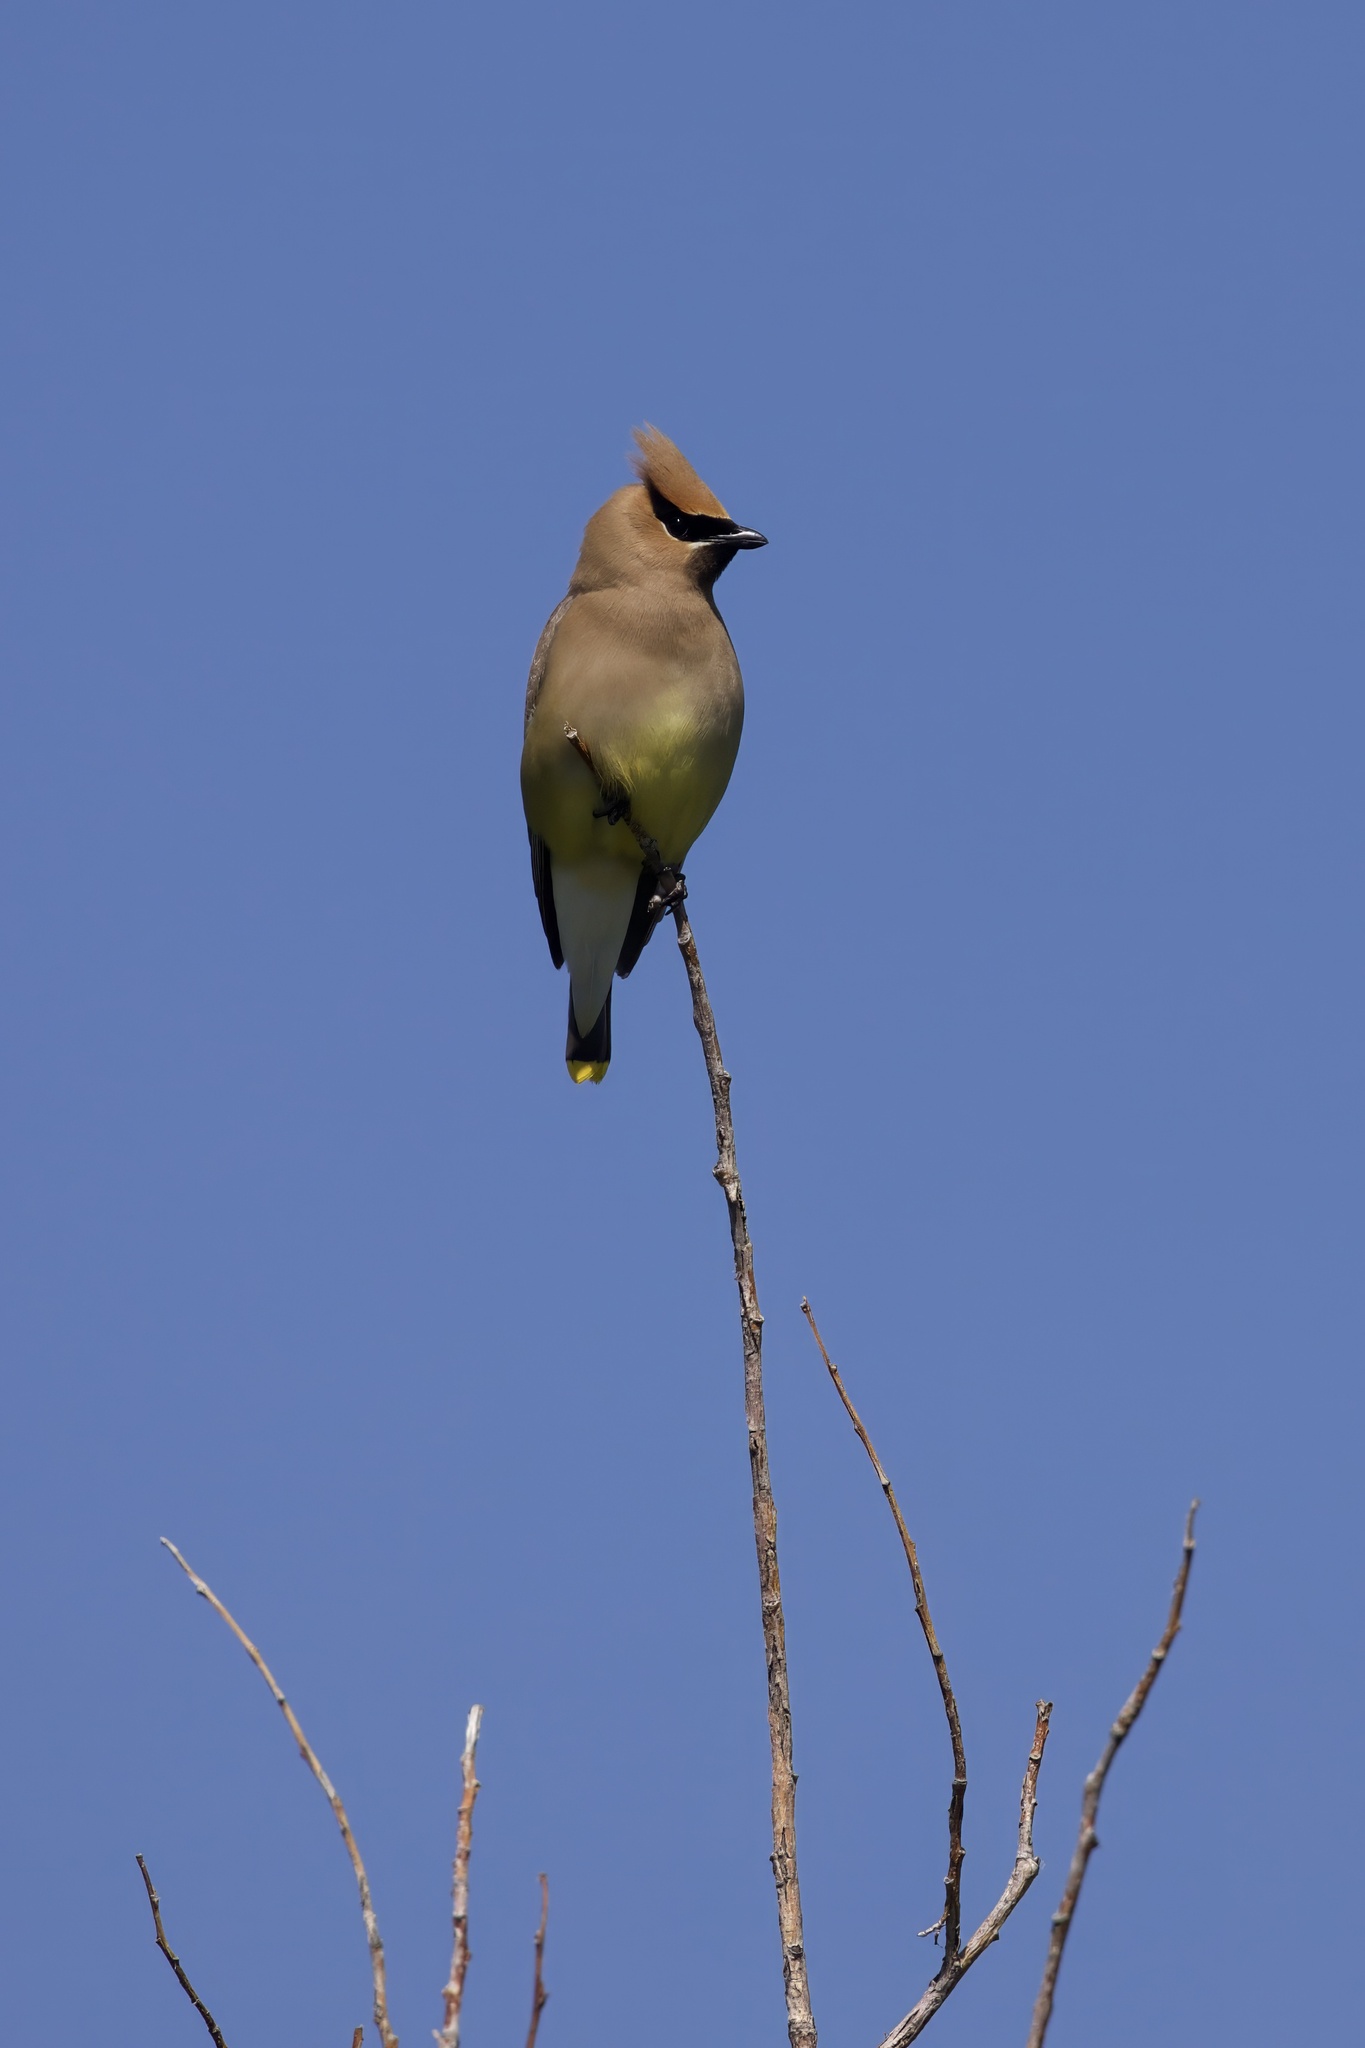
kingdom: Animalia
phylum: Chordata
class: Aves
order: Passeriformes
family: Bombycillidae
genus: Bombycilla
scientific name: Bombycilla cedrorum
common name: Cedar waxwing
